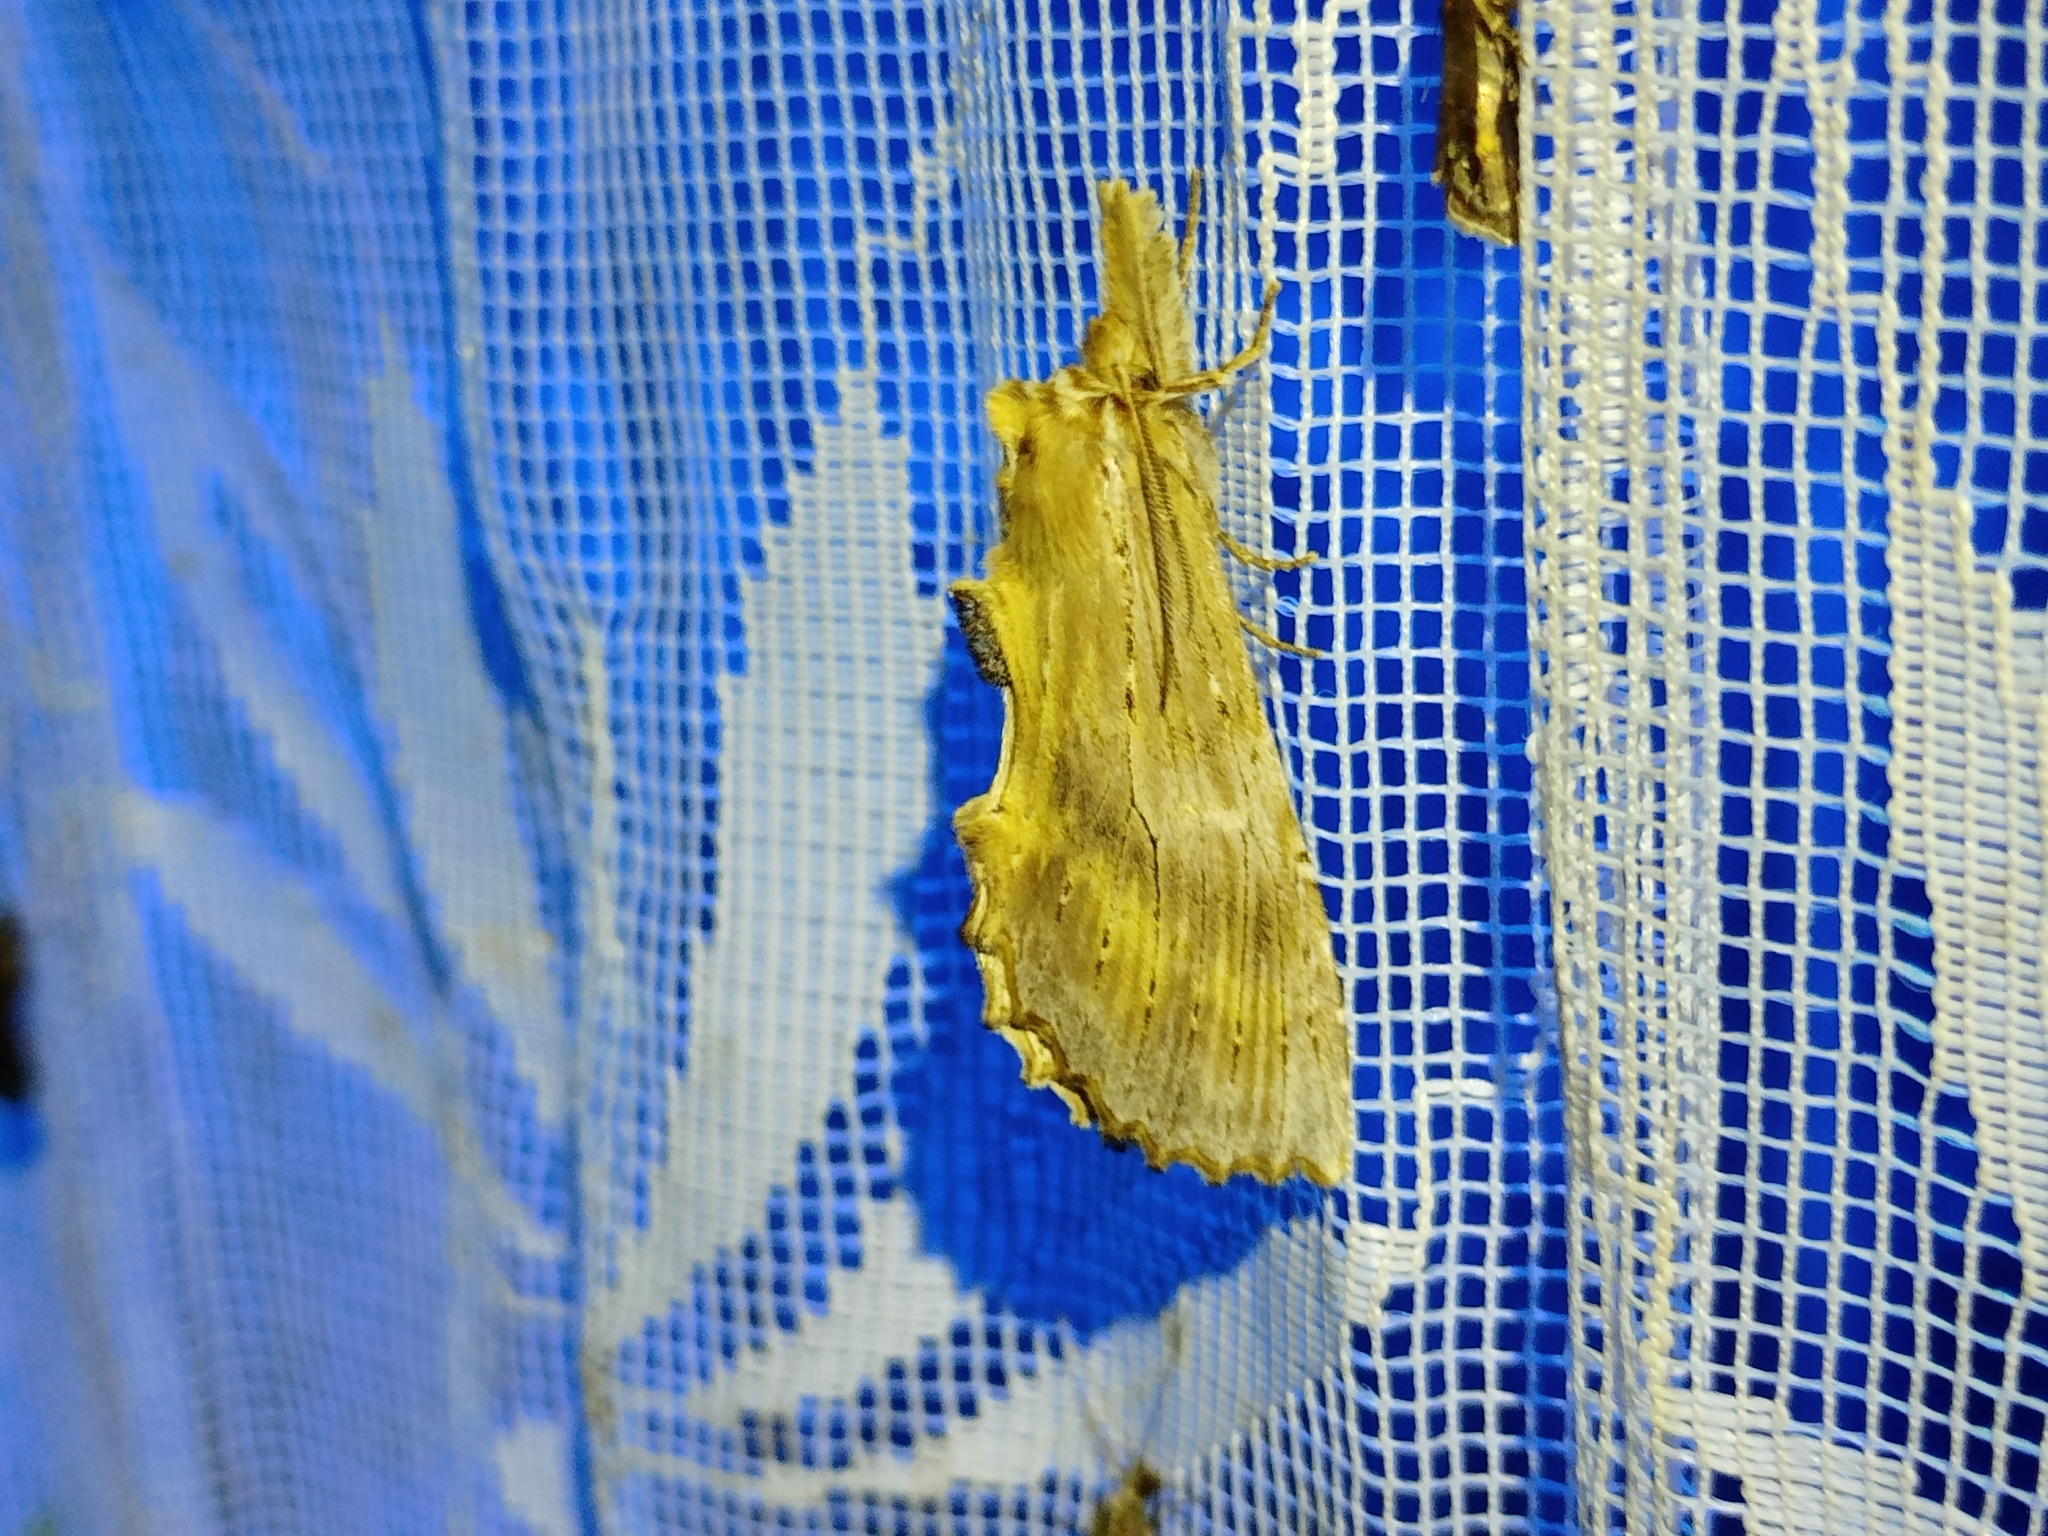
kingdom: Animalia
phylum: Arthropoda
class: Insecta
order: Lepidoptera
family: Notodontidae
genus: Pterostoma
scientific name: Pterostoma palpina
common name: Pale prominent
